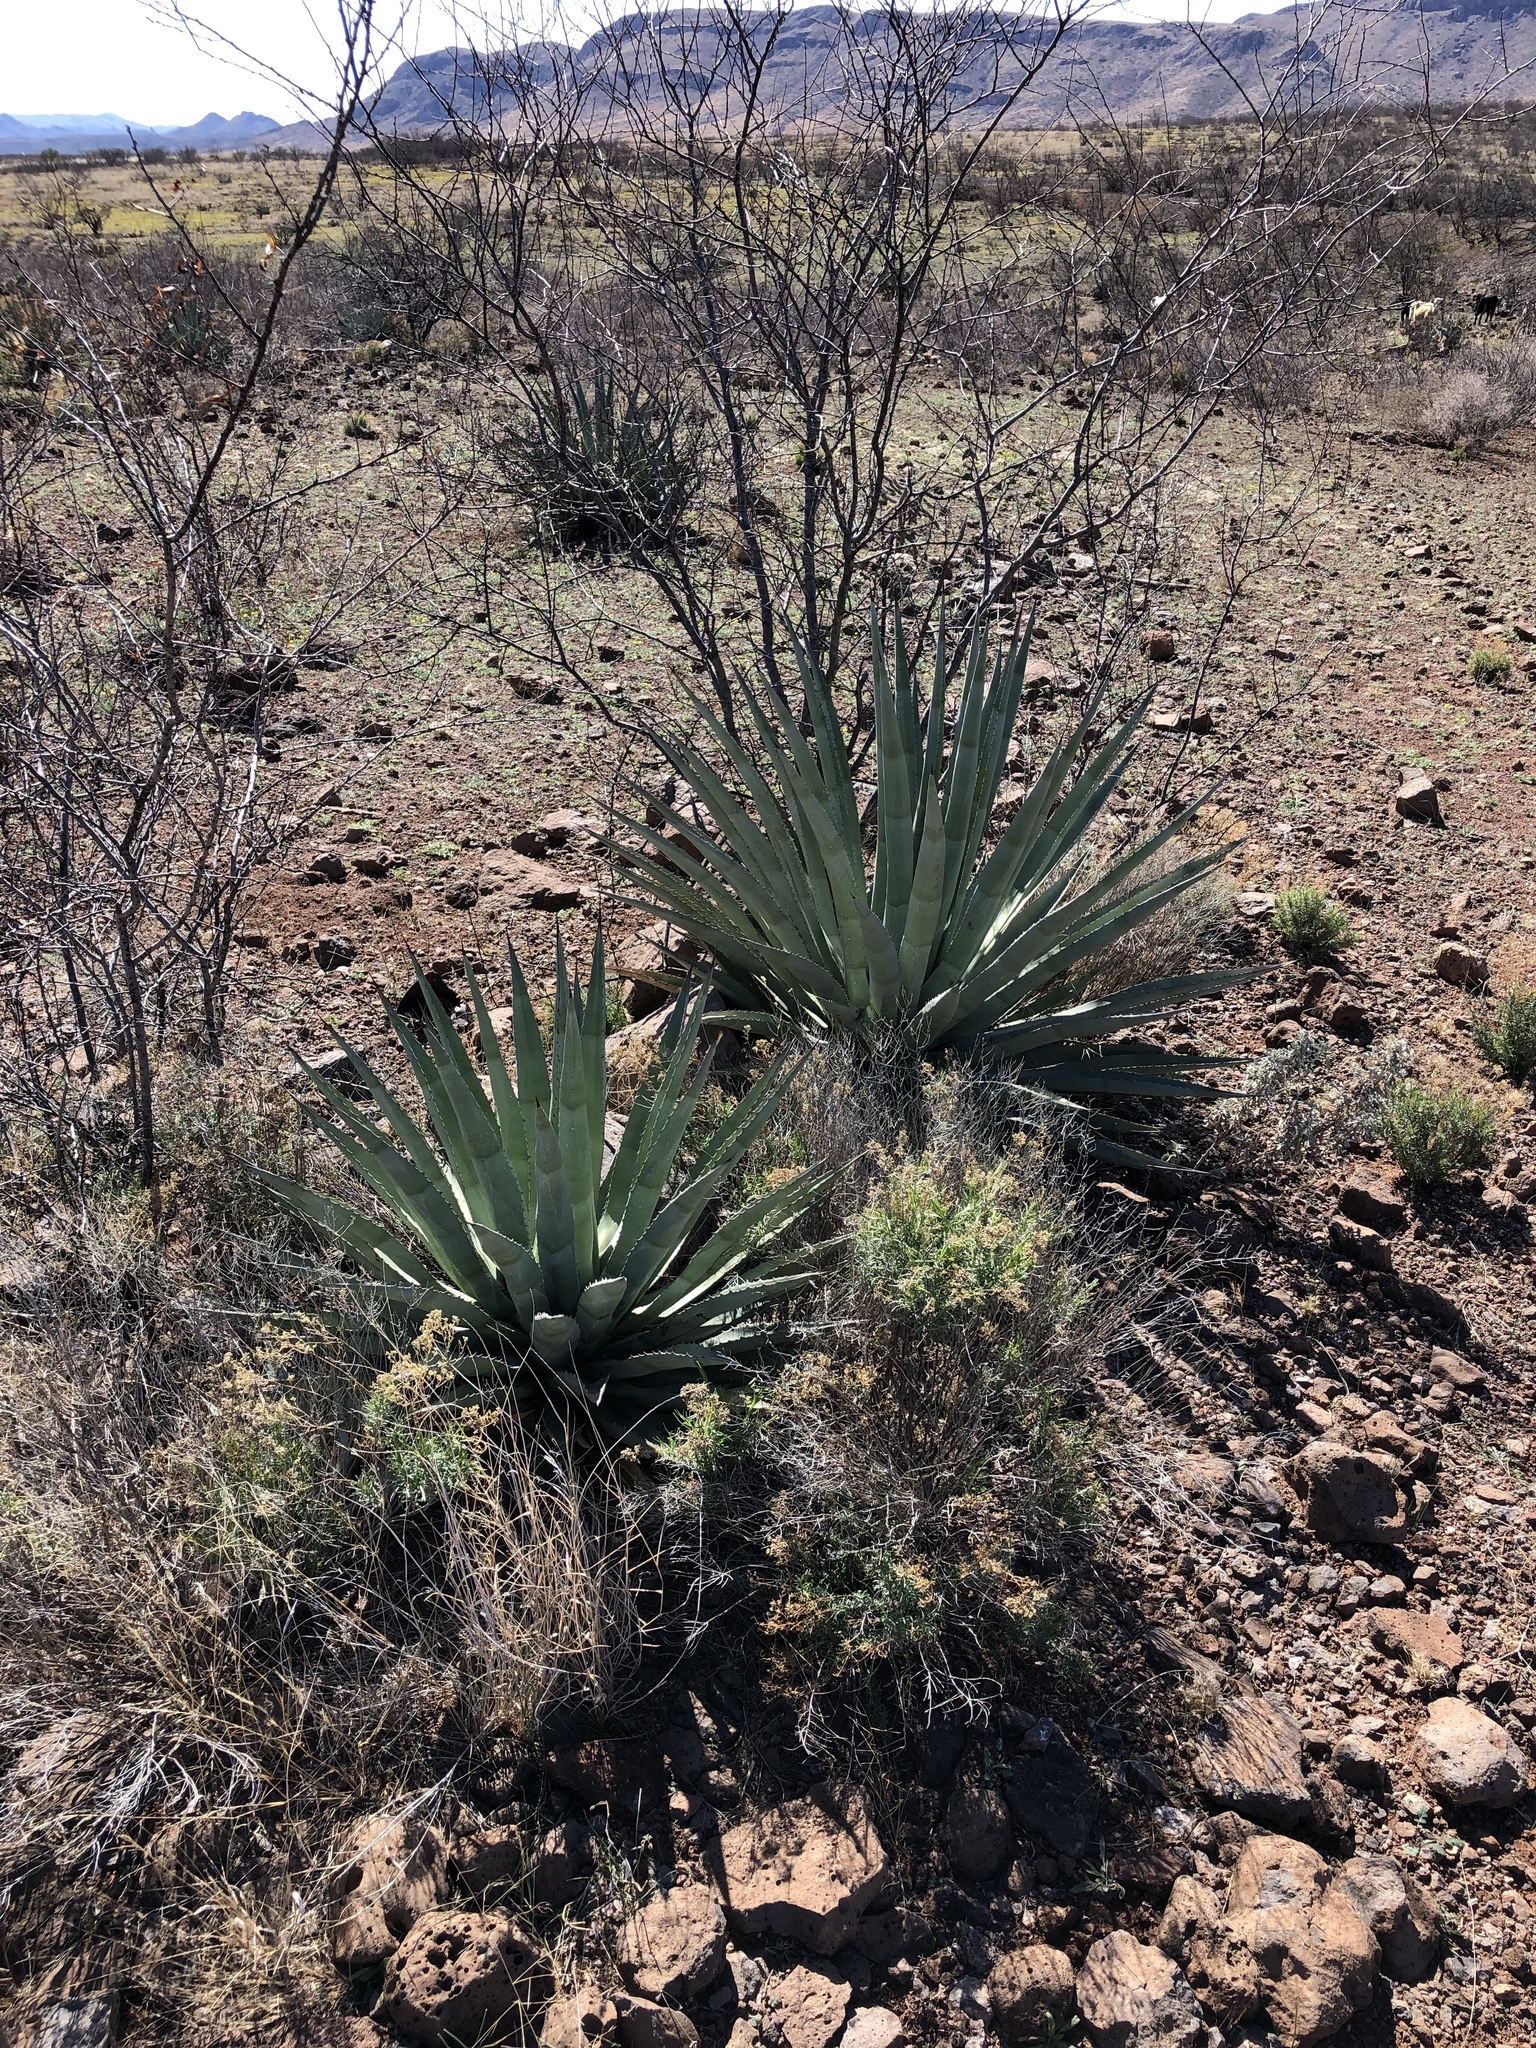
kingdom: Plantae
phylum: Tracheophyta
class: Liliopsida
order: Asparagales
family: Asparagaceae
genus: Agave
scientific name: Agave palmeri
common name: Palmer agave
